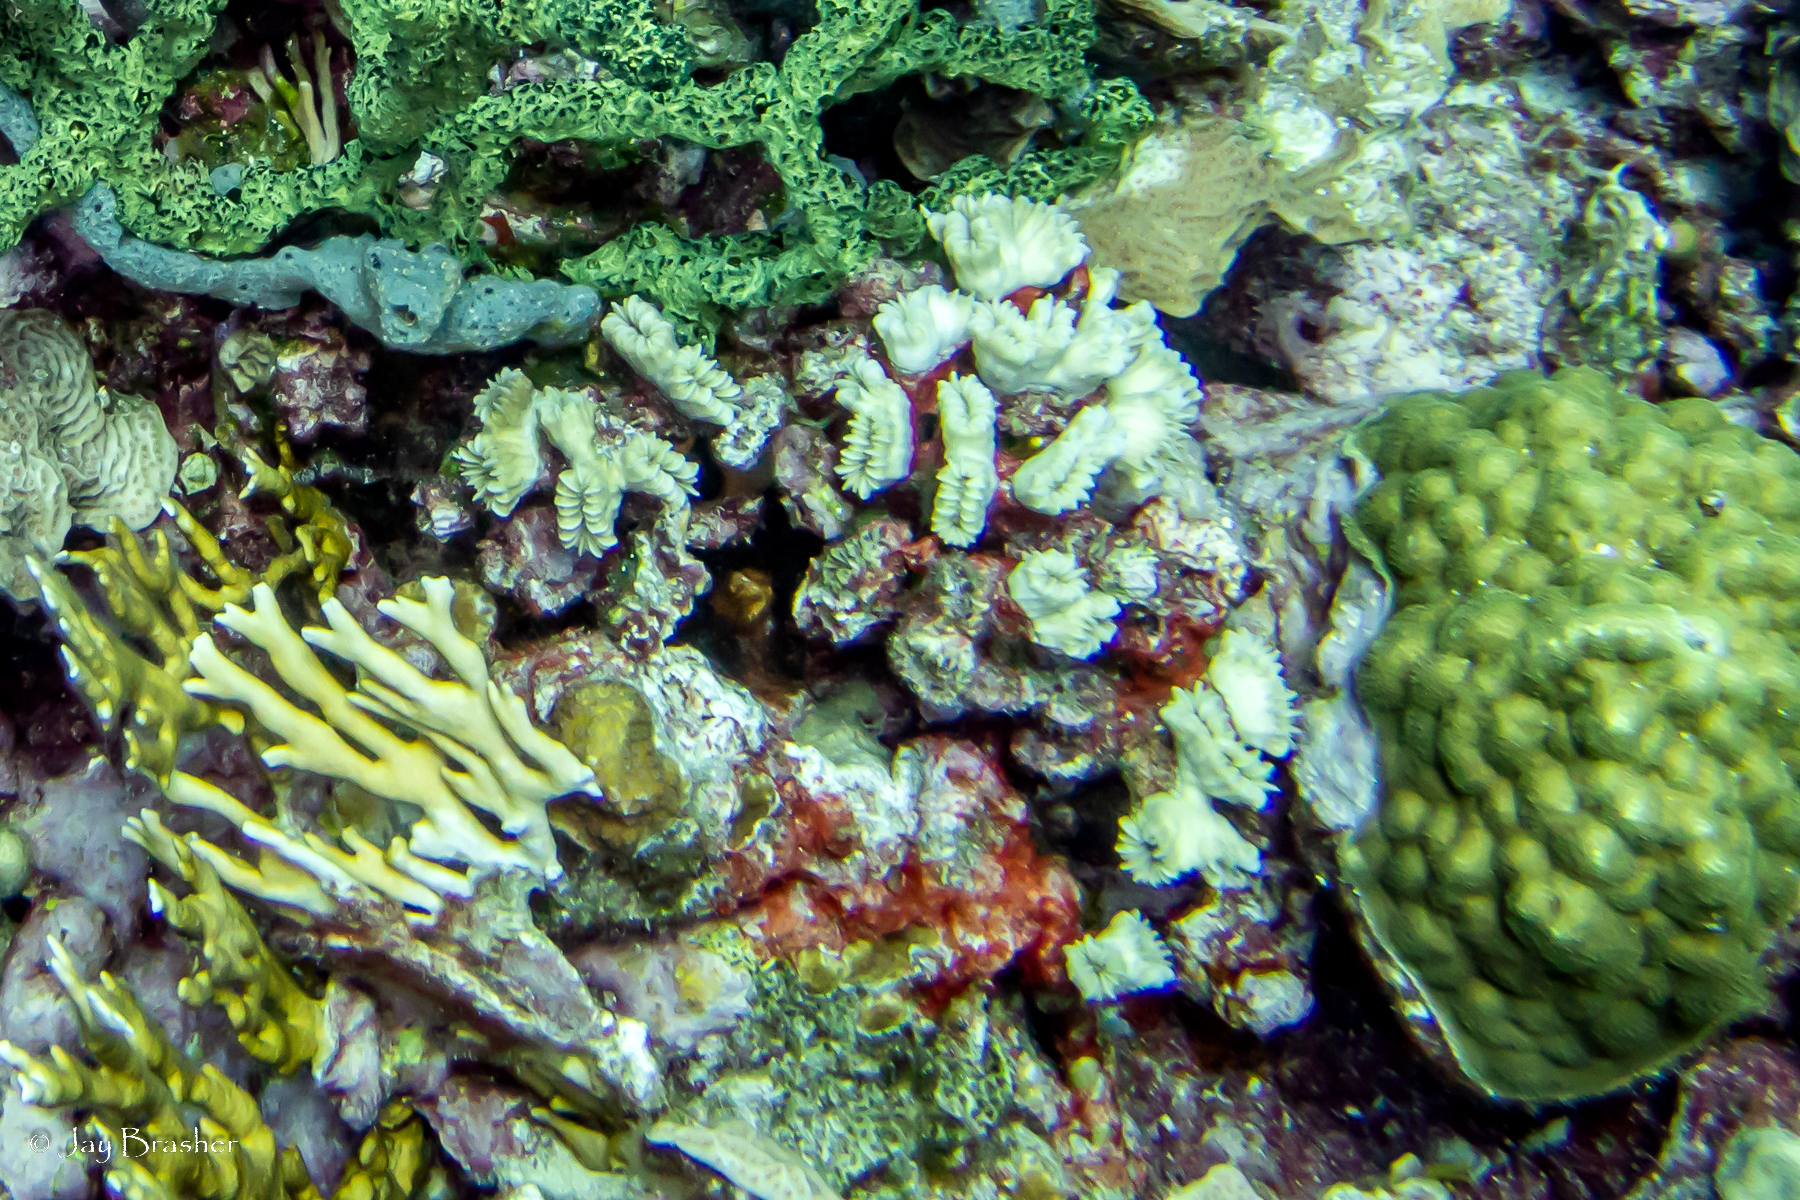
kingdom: Animalia
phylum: Porifera
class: Demospongiae
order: Haplosclerida
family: Niphatidae
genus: Niphates
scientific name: Niphates erecta
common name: Lavender rope sponge
